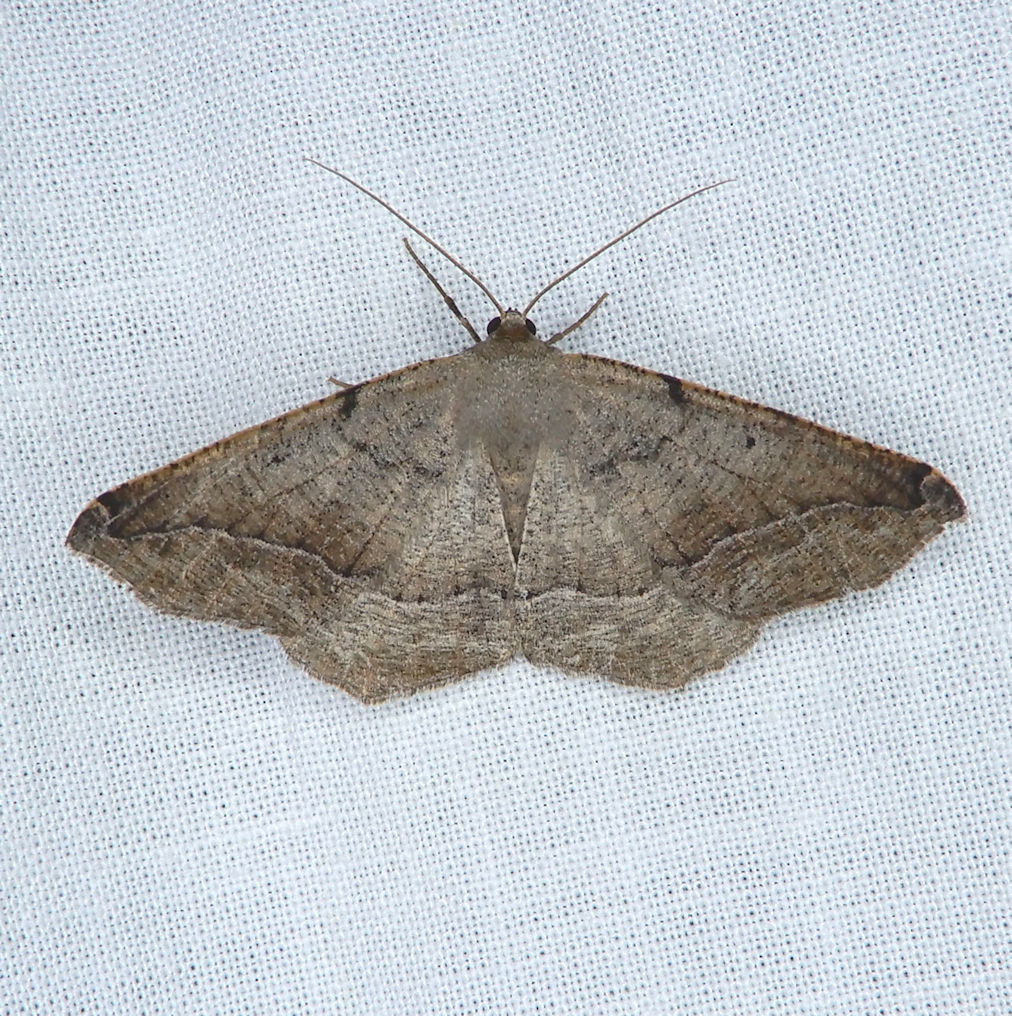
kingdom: Animalia
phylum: Arthropoda
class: Insecta
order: Lepidoptera
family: Geometridae
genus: Prochoerodes
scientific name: Prochoerodes forficaria
